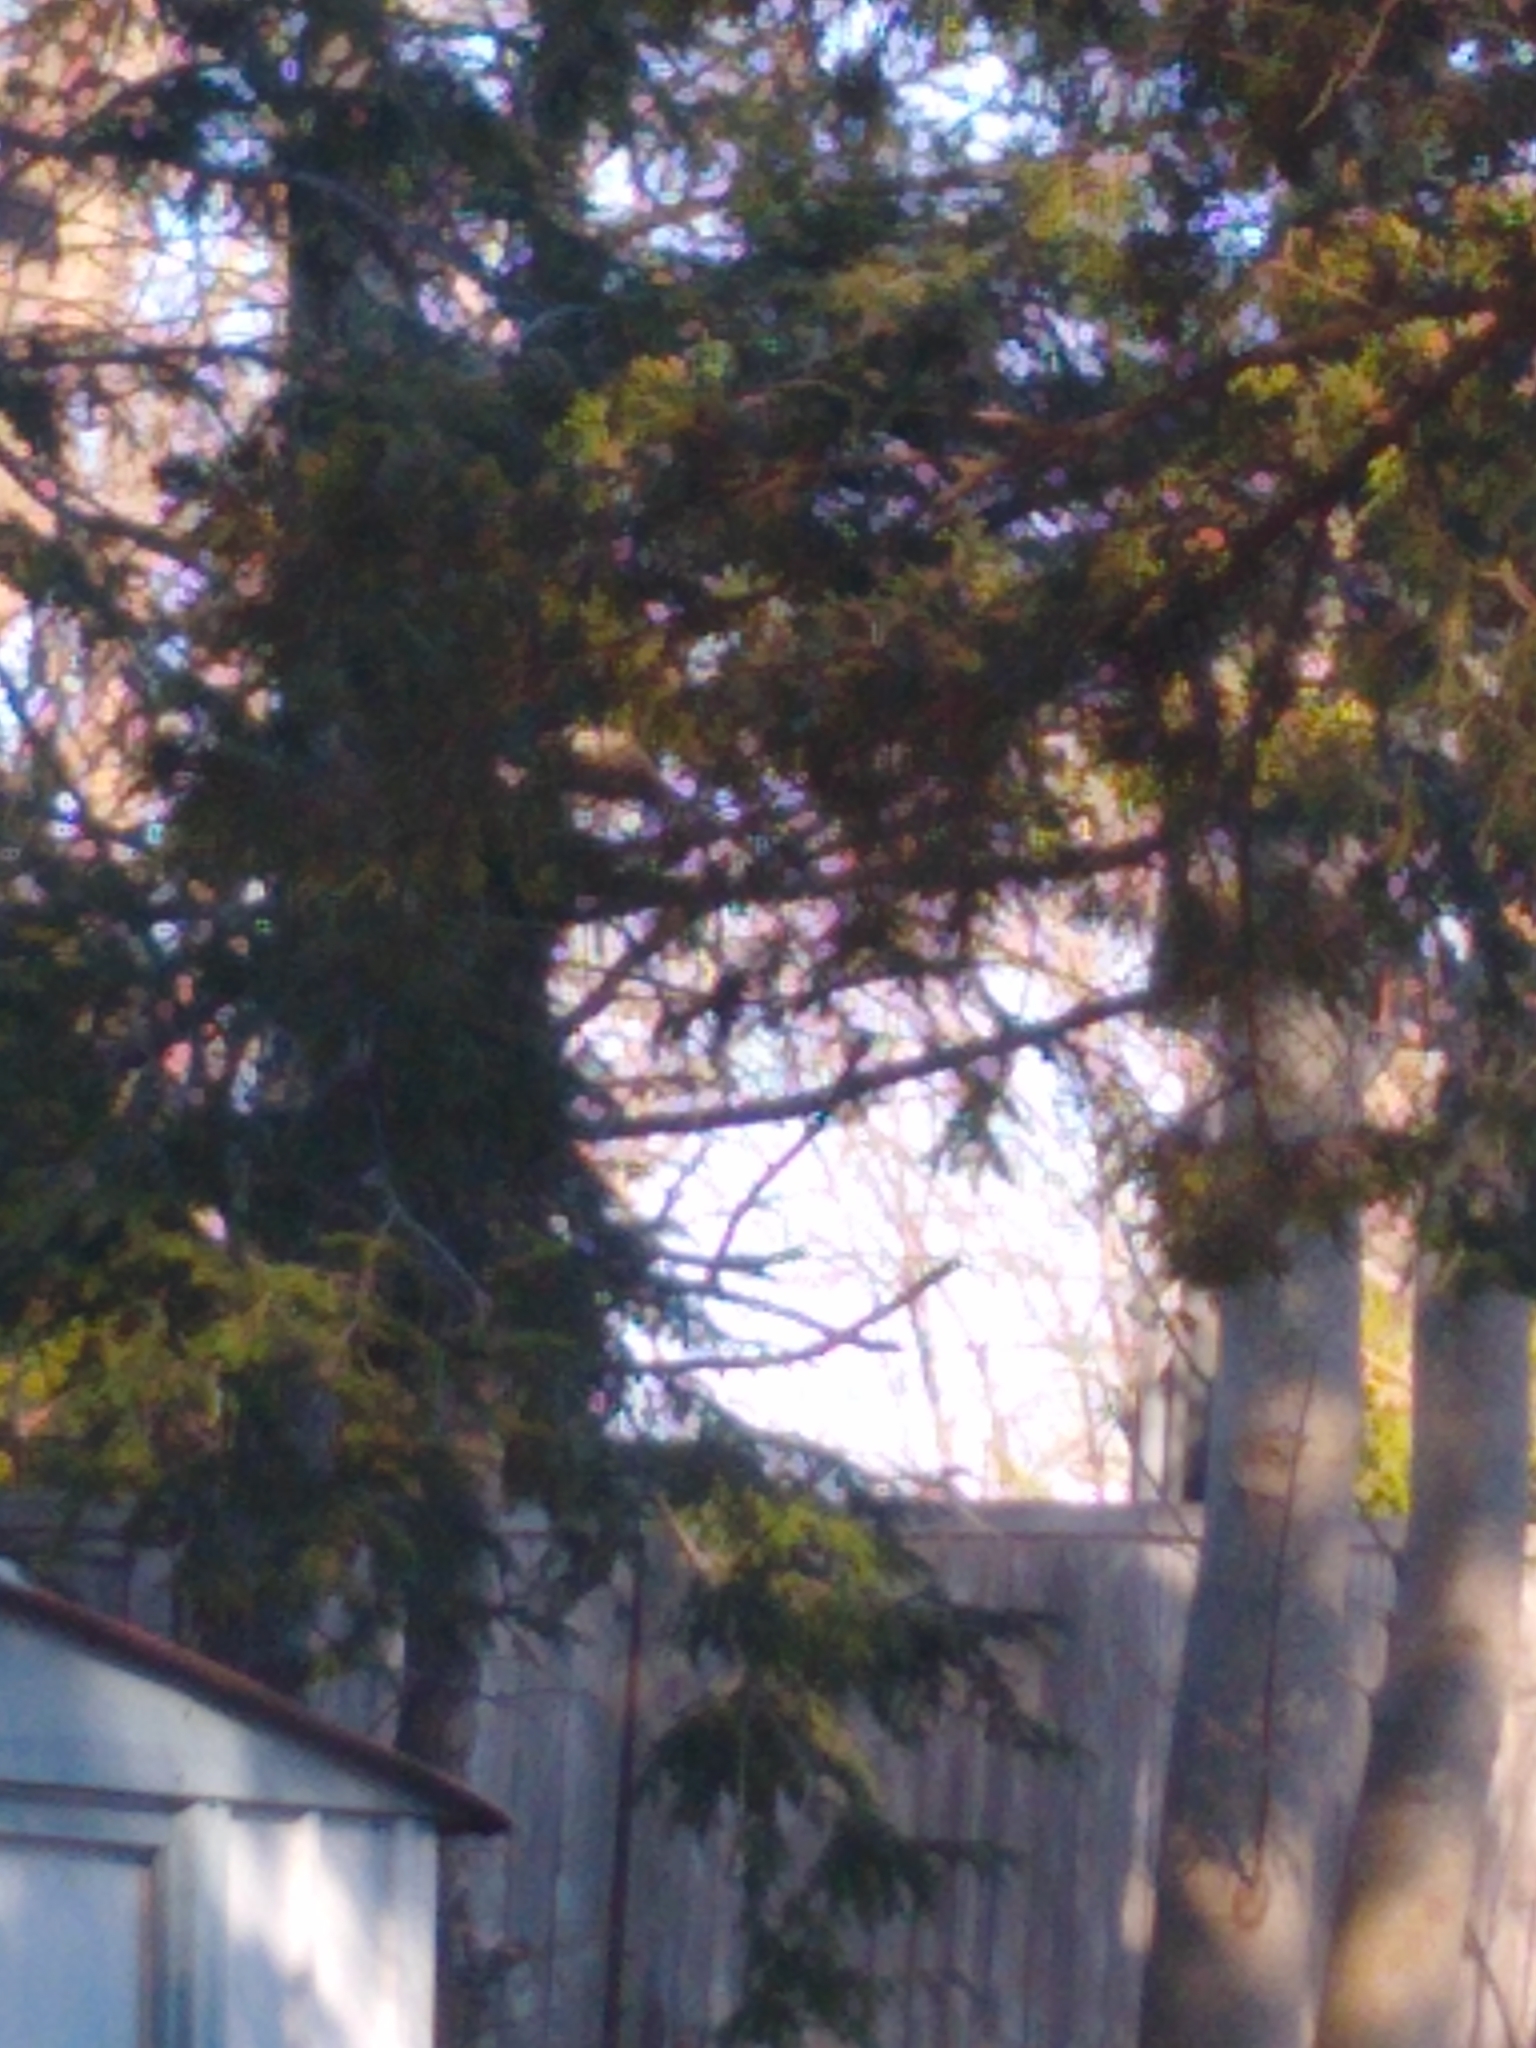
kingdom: Animalia
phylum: Chordata
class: Aves
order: Passeriformes
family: Paridae
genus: Poecile
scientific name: Poecile atricapillus
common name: Black-capped chickadee
